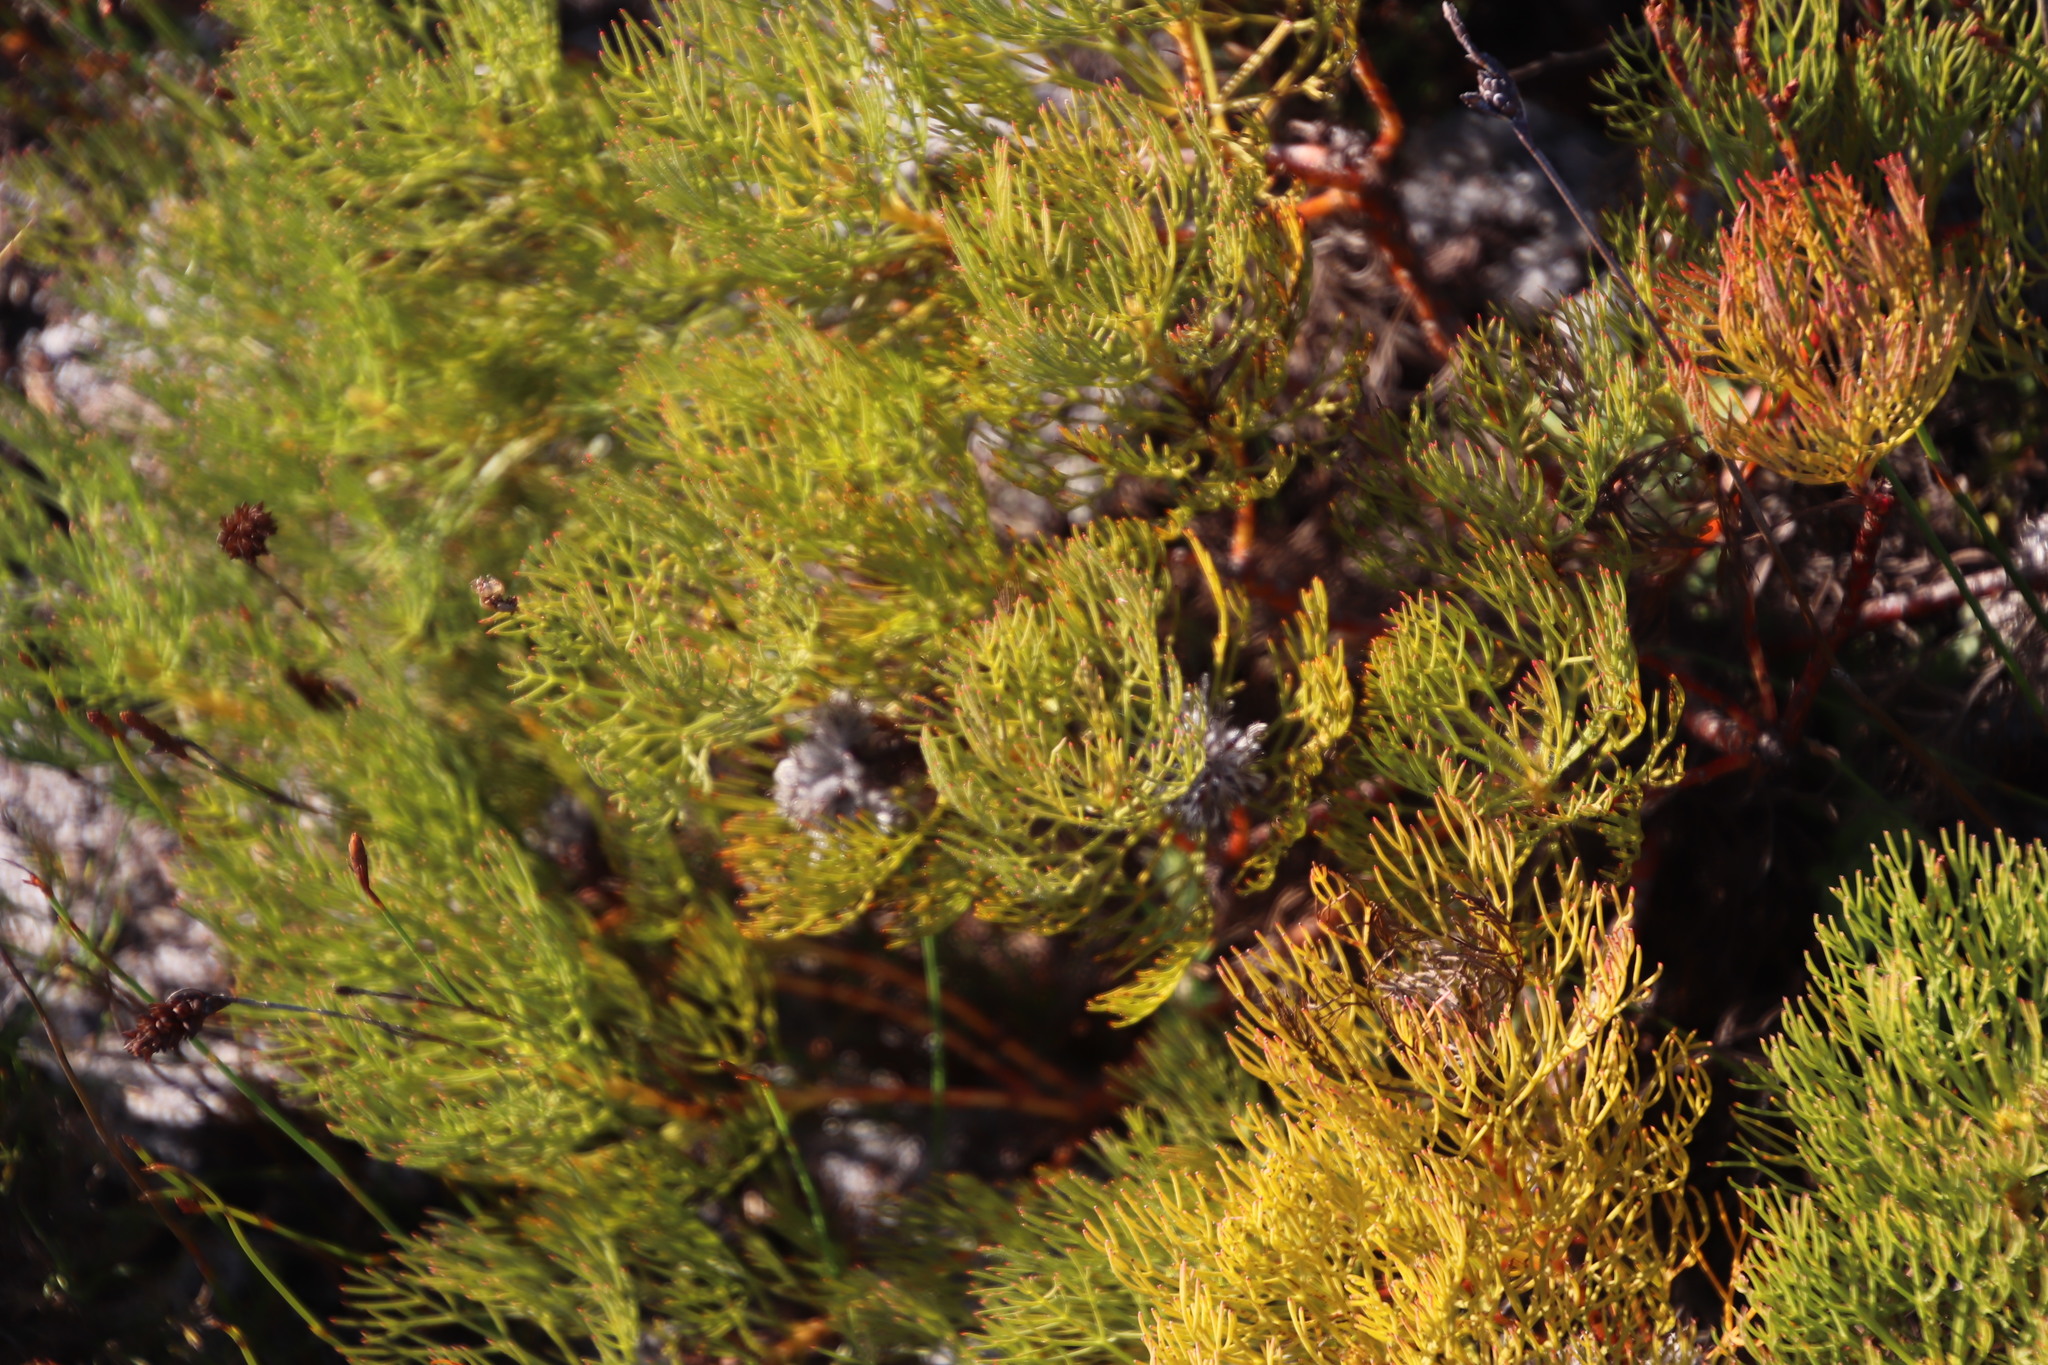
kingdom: Plantae
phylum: Tracheophyta
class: Magnoliopsida
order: Proteales
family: Proteaceae
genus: Serruria
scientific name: Serruria glomerata
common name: Cluster spiderhead
